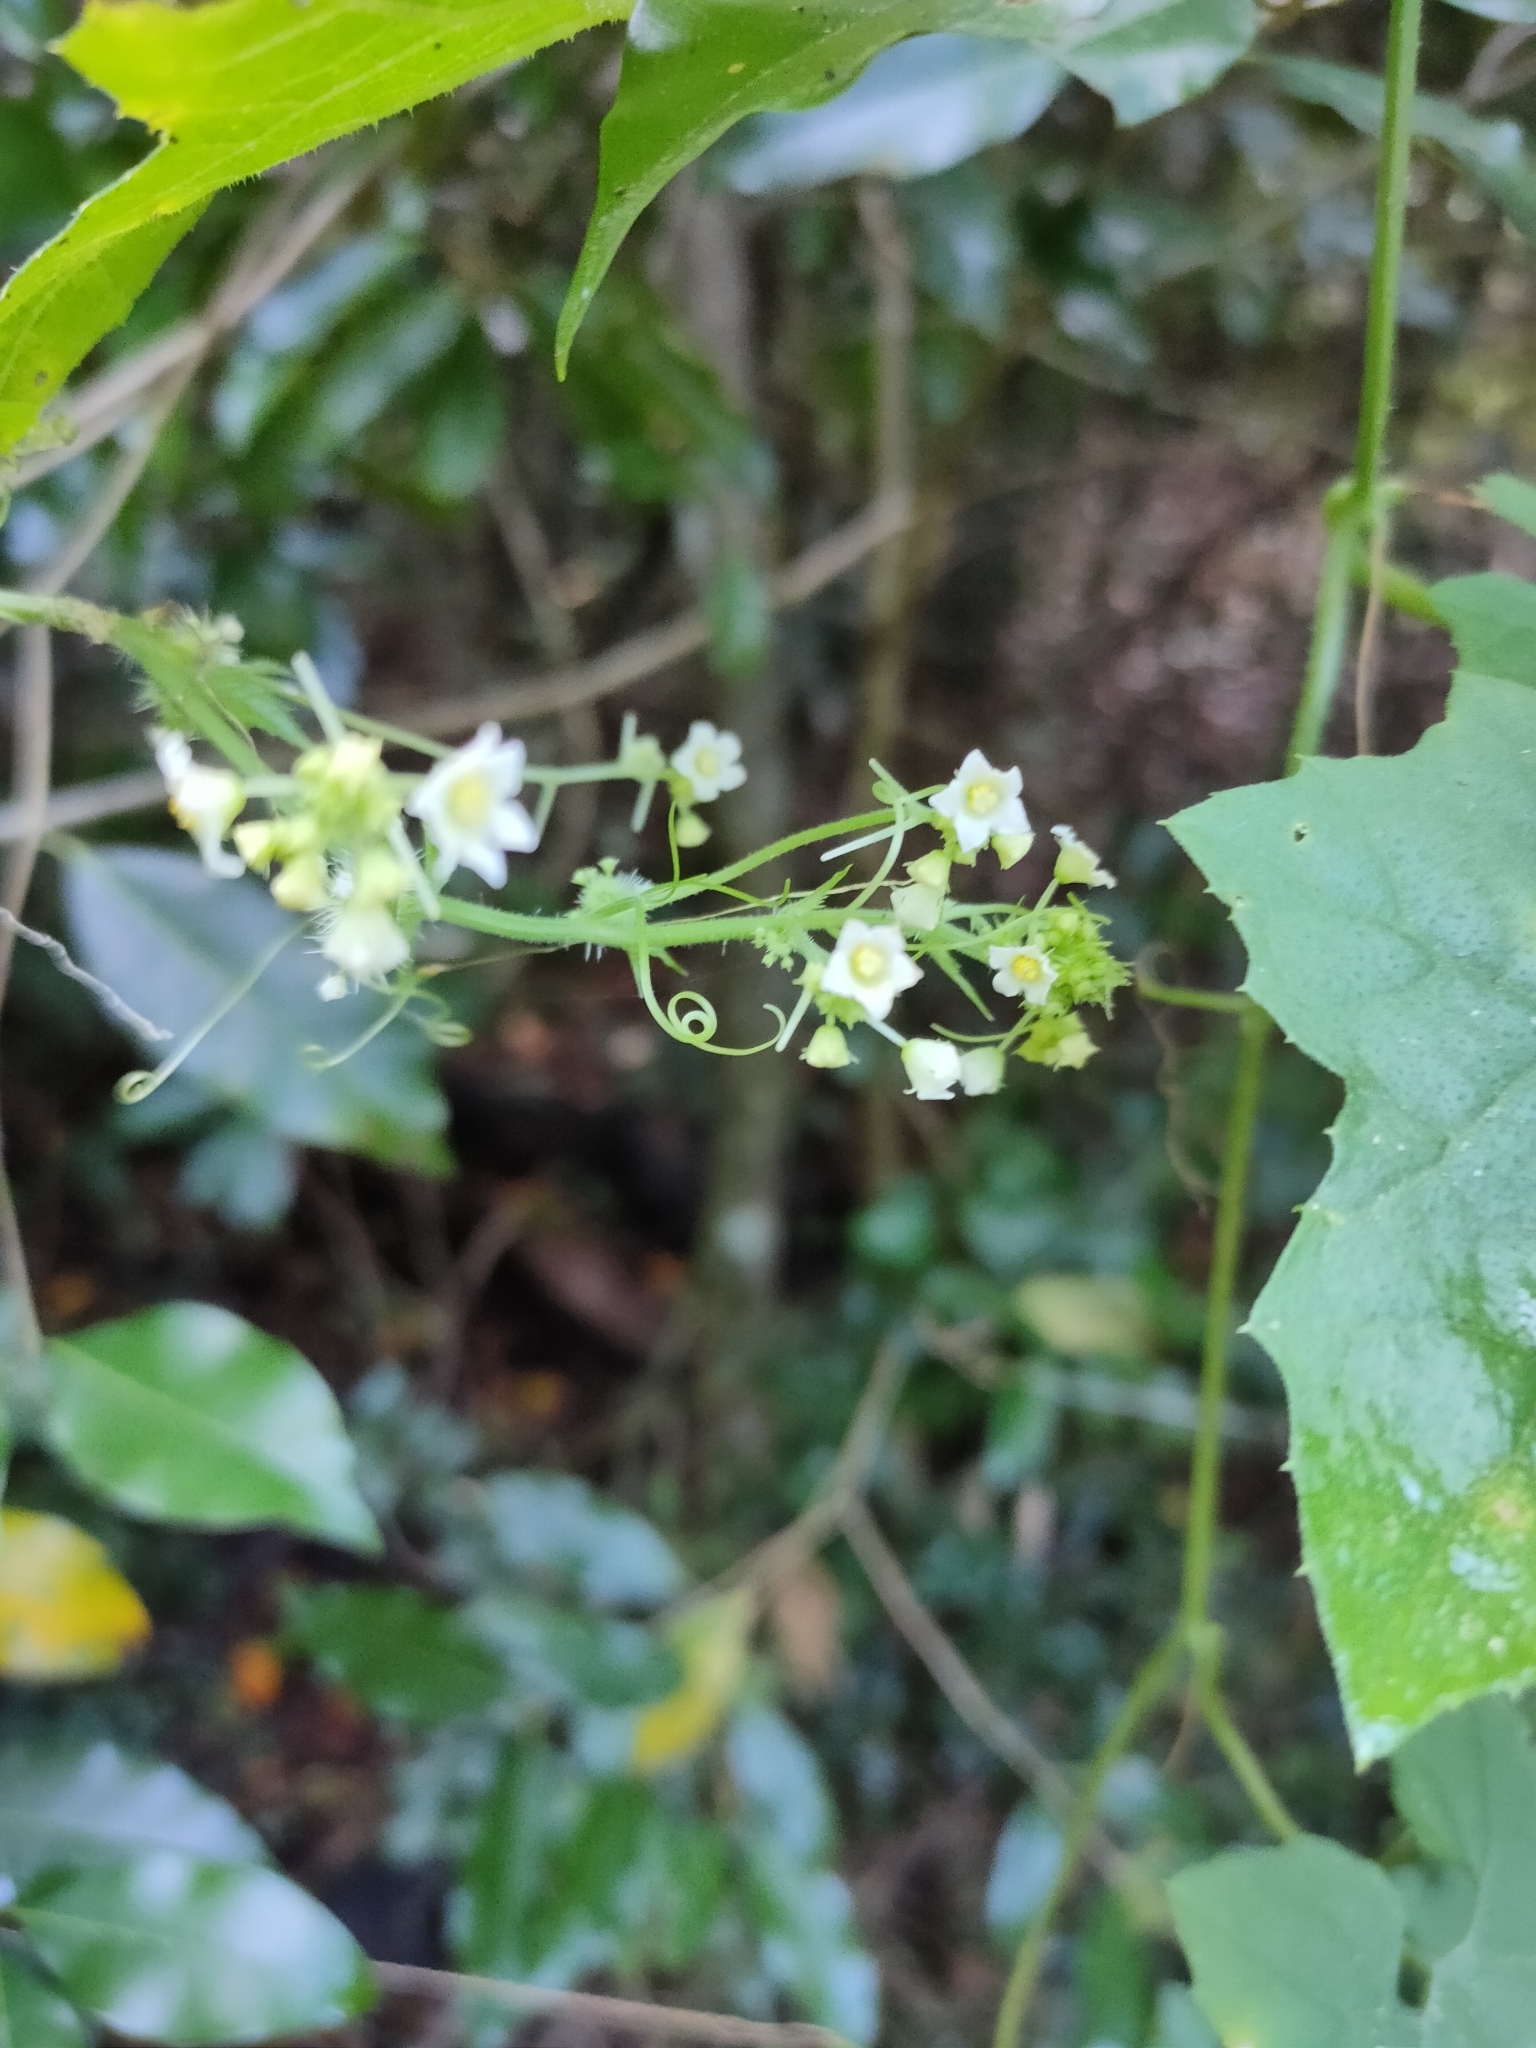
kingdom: Plantae
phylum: Tracheophyta
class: Magnoliopsida
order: Cucurbitales
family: Cucurbitaceae
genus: Sicyos
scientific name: Sicyos australis
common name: Angle-cucumber
